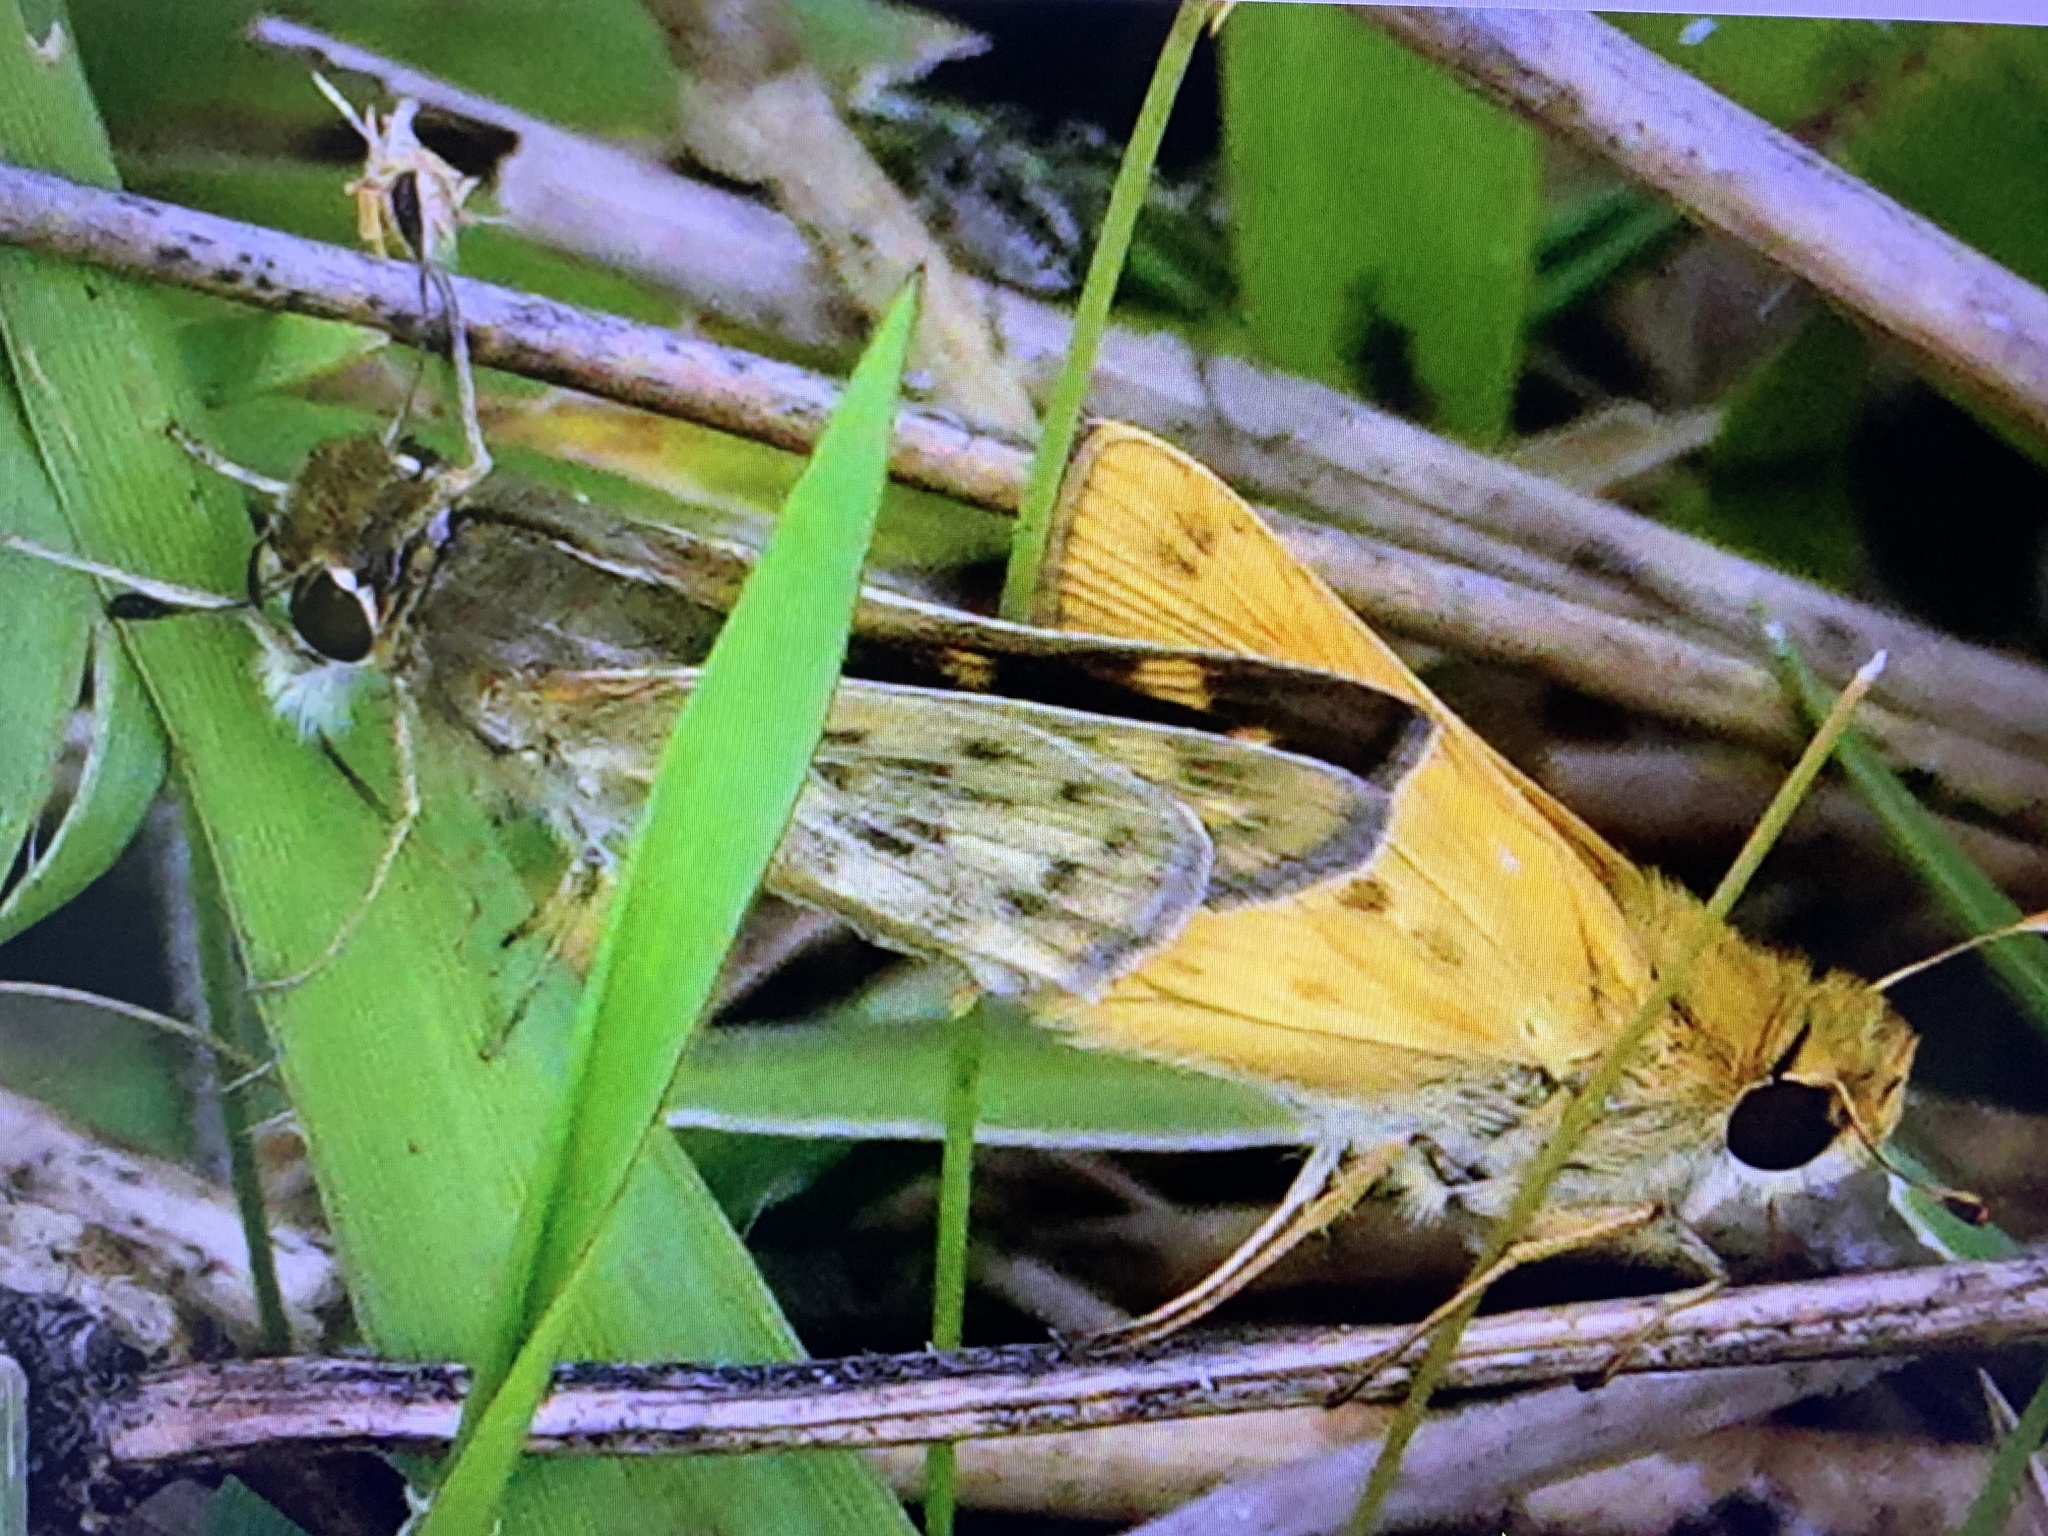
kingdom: Animalia
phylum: Arthropoda
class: Insecta
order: Lepidoptera
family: Hesperiidae
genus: Hylephila
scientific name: Hylephila phyleus
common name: Fiery skipper
